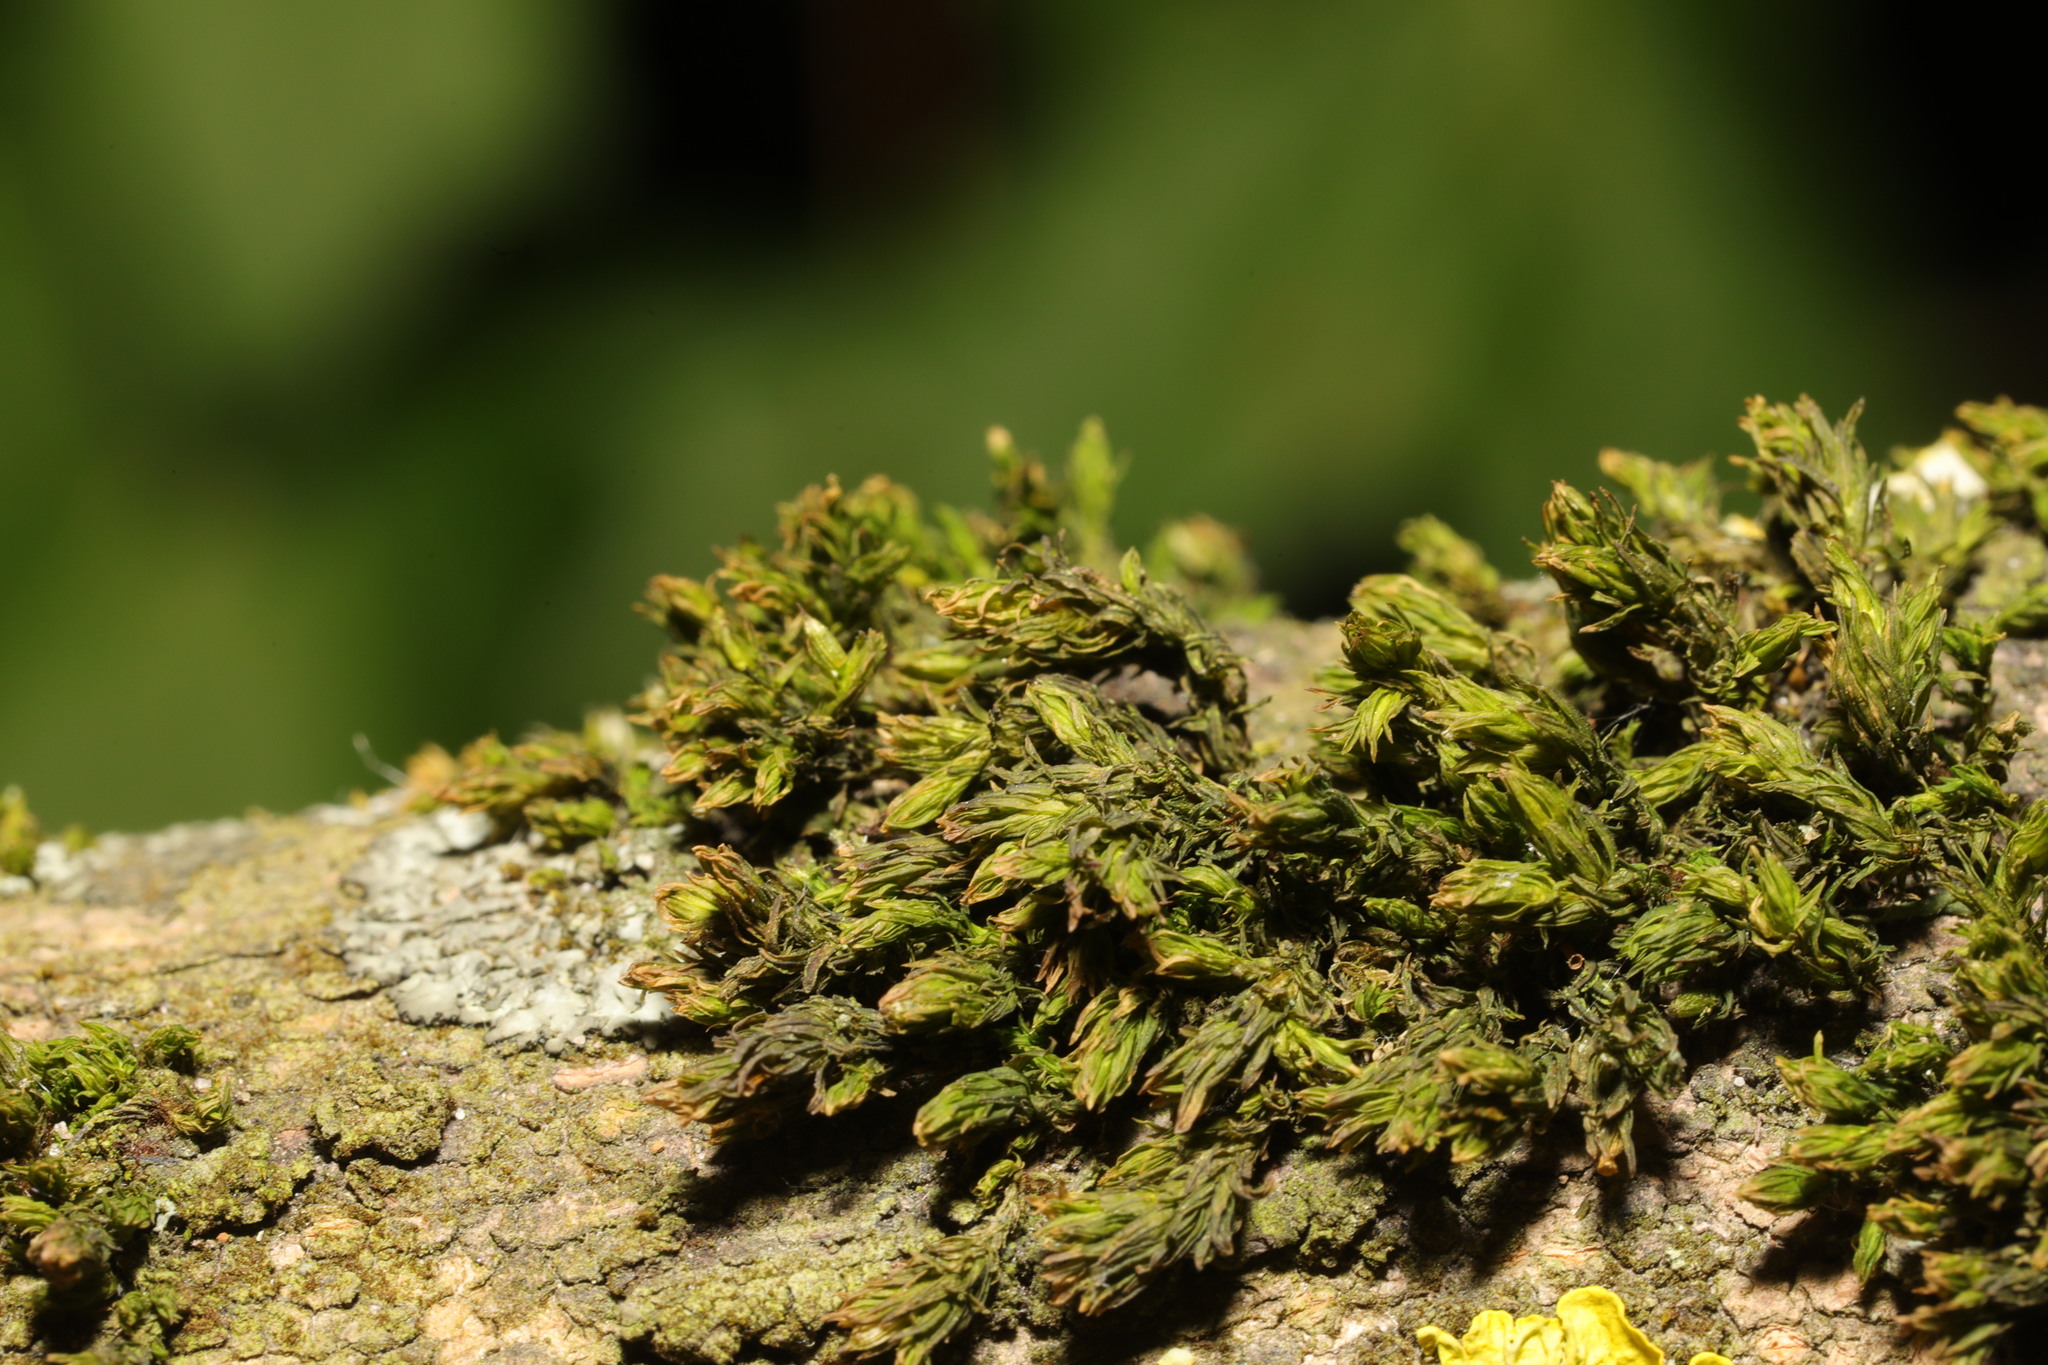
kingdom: Plantae
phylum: Bryophyta
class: Bryopsida
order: Orthotrichales
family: Orthotrichaceae
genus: Lewinskya
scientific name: Lewinskya affinis
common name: Wood bristle-moss
